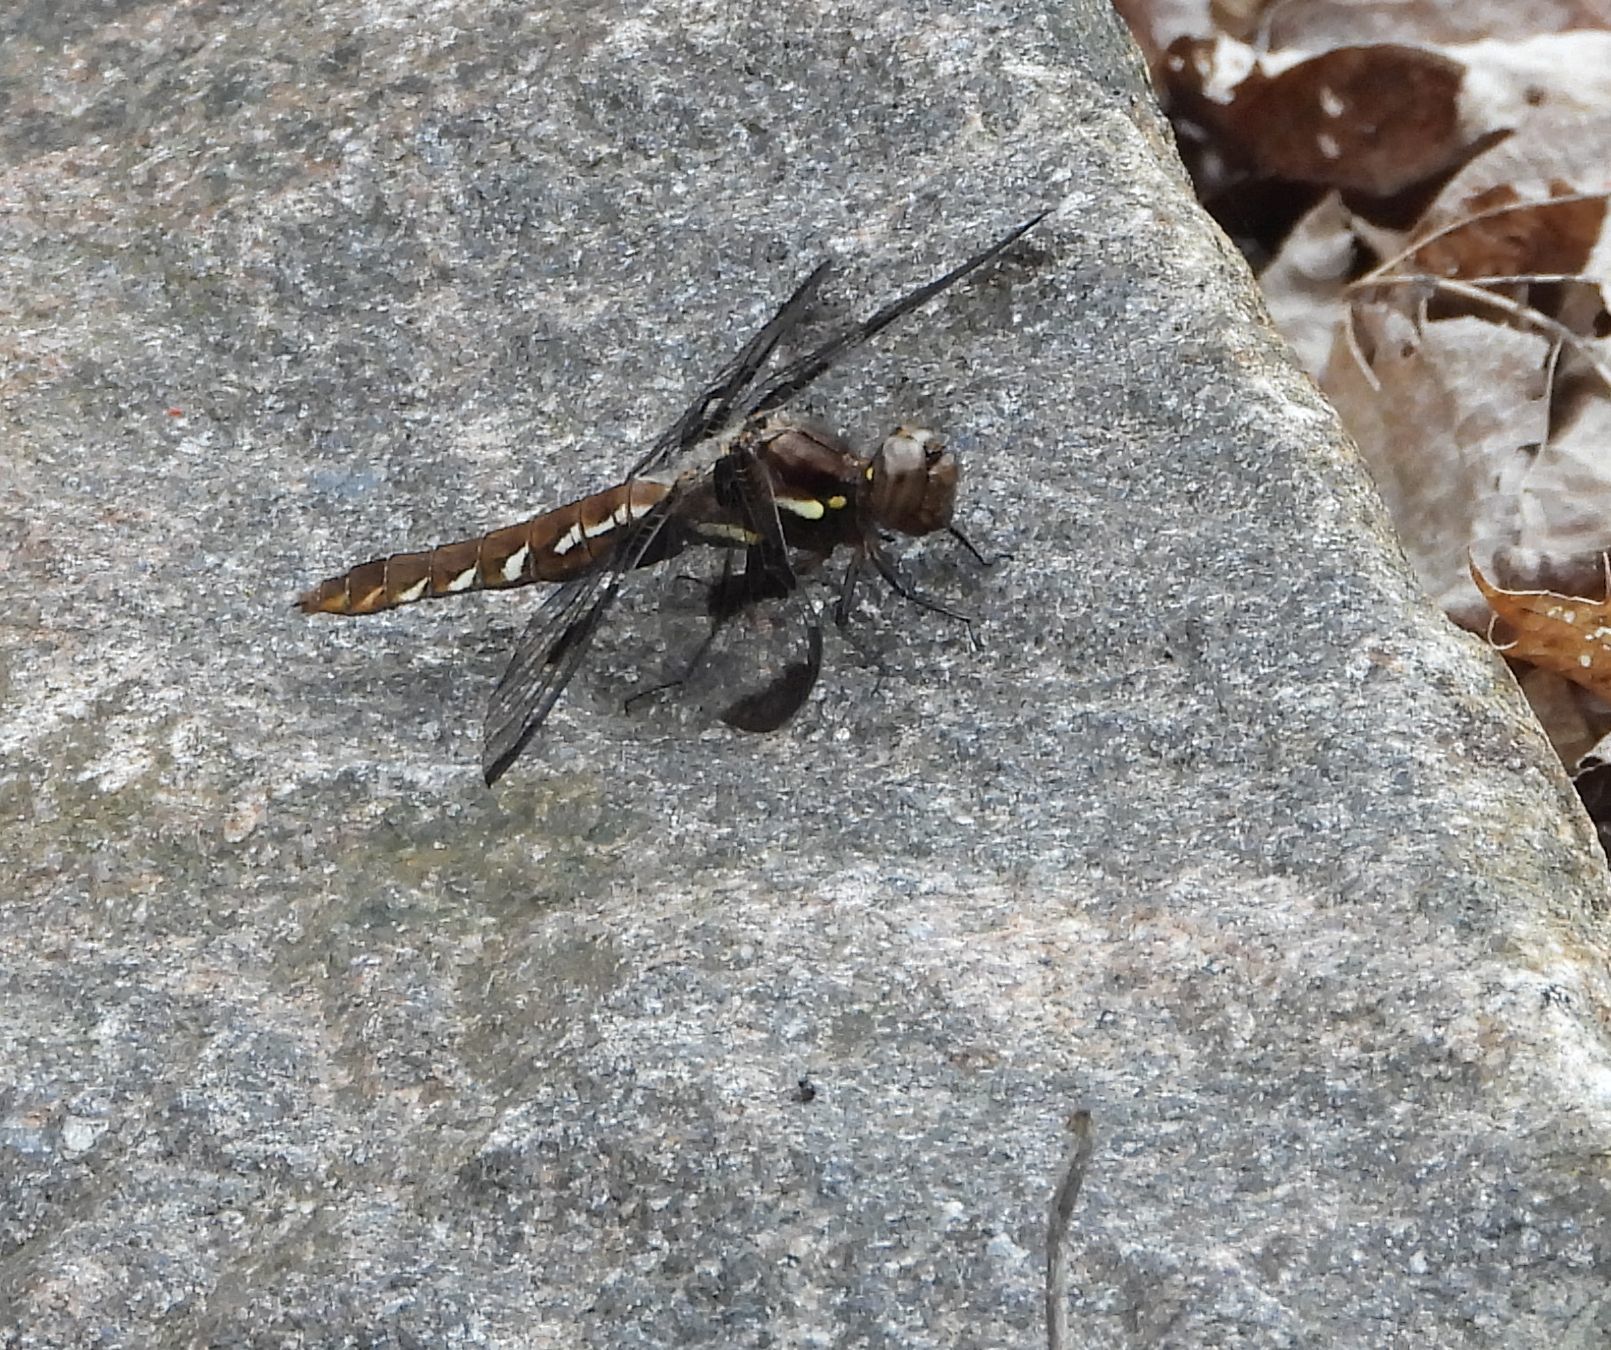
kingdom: Animalia
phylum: Arthropoda
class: Insecta
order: Odonata
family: Libellulidae
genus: Plathemis
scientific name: Plathemis lydia
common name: Common whitetail
